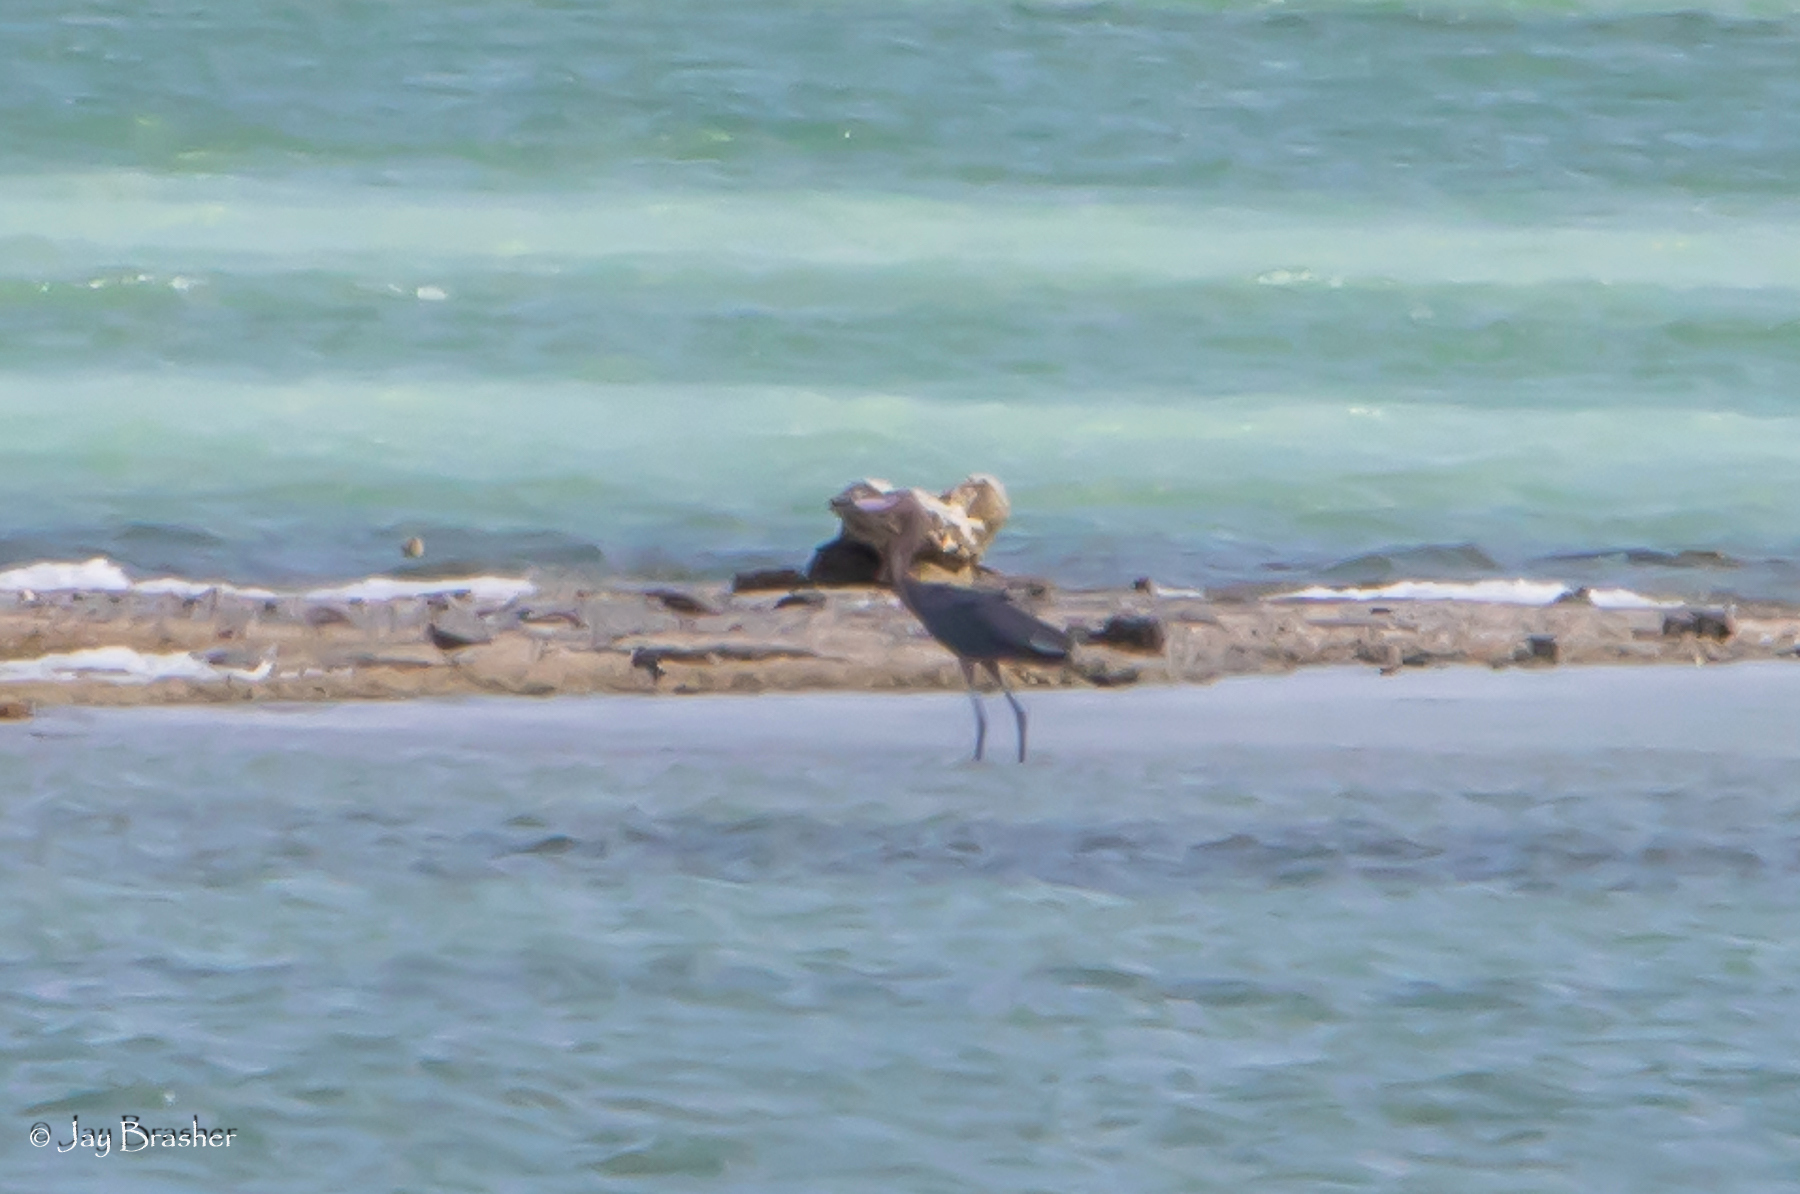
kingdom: Animalia
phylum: Chordata
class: Aves
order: Pelecaniformes
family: Ardeidae
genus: Egretta
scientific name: Egretta rufescens
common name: Reddish egret
